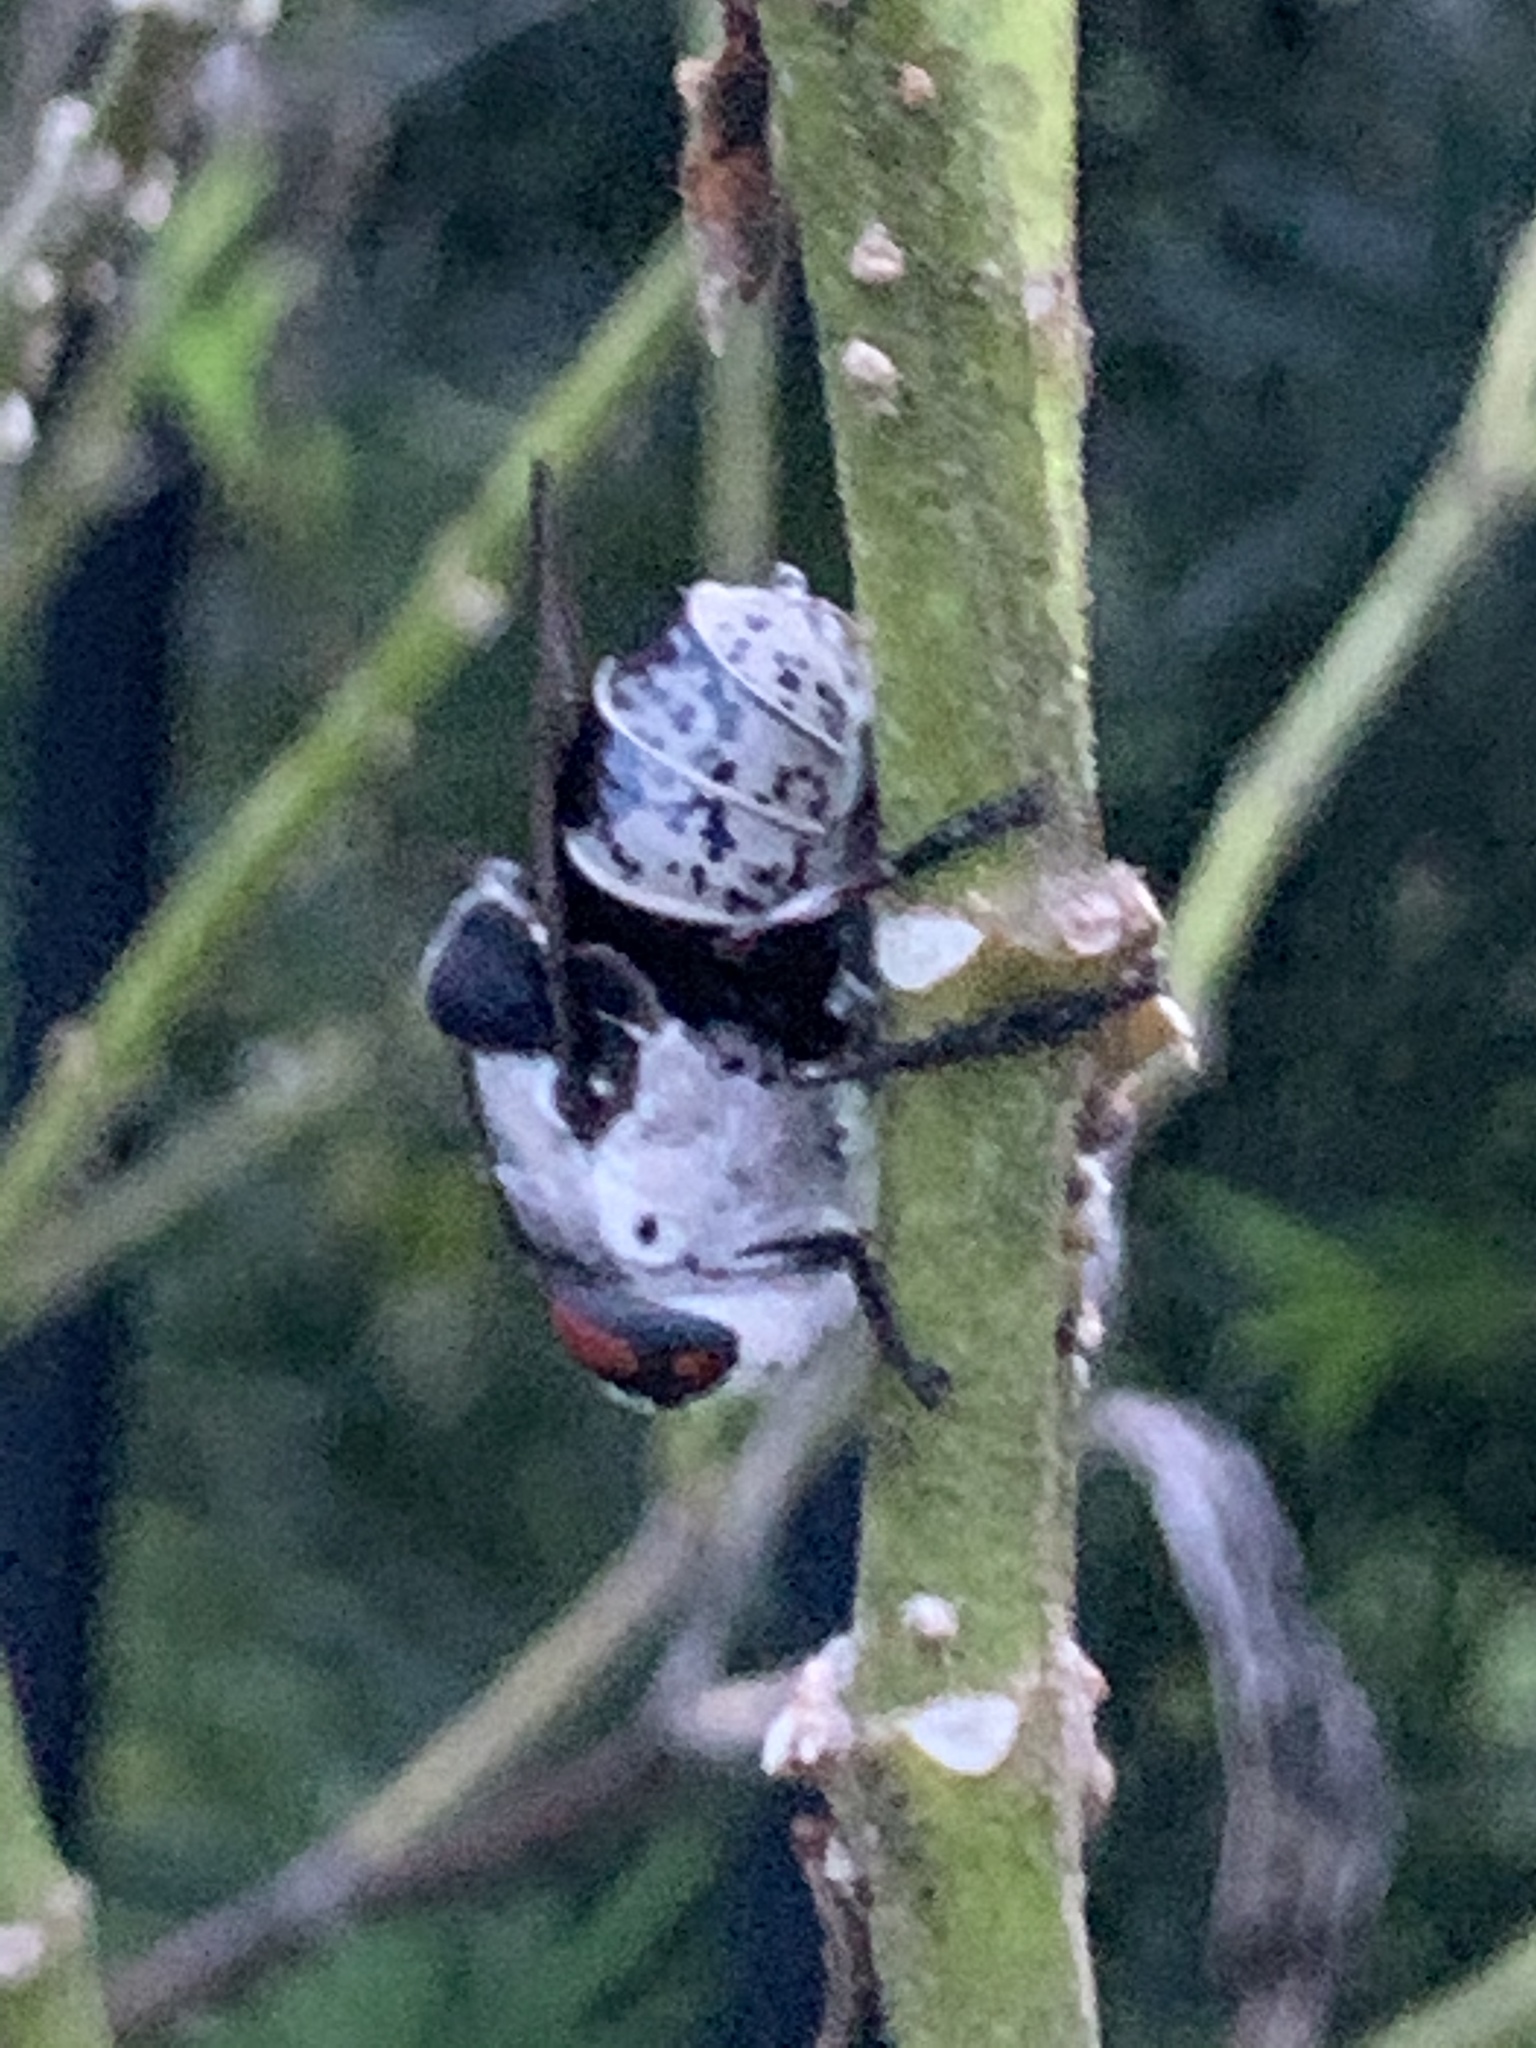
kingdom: Animalia
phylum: Arthropoda
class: Insecta
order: Diptera
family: Oestridae
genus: Cuterebra
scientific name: Cuterebra buccata
